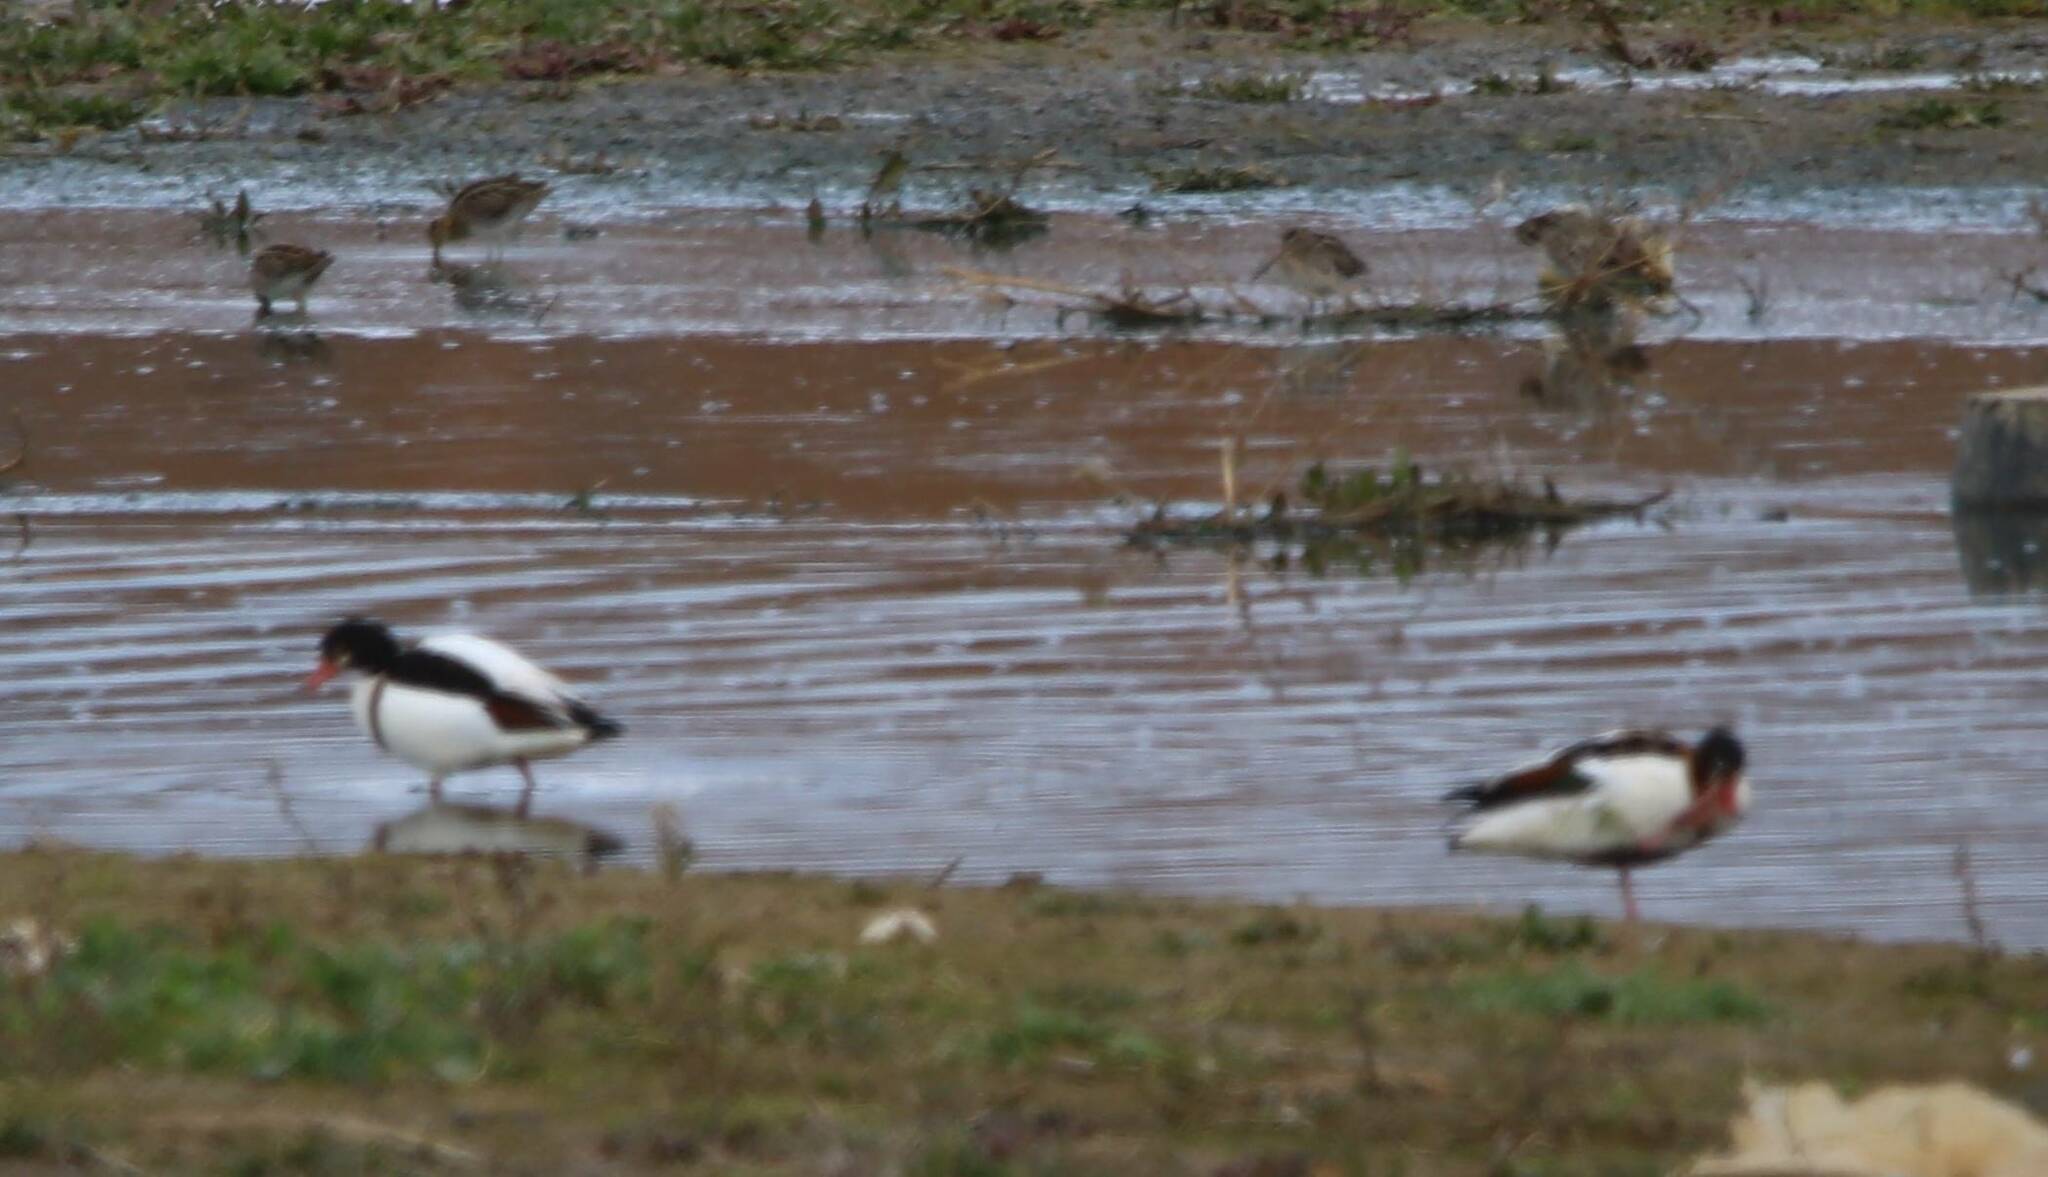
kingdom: Animalia
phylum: Chordata
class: Aves
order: Anseriformes
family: Anatidae
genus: Tadorna
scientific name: Tadorna tadorna
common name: Common shelduck
